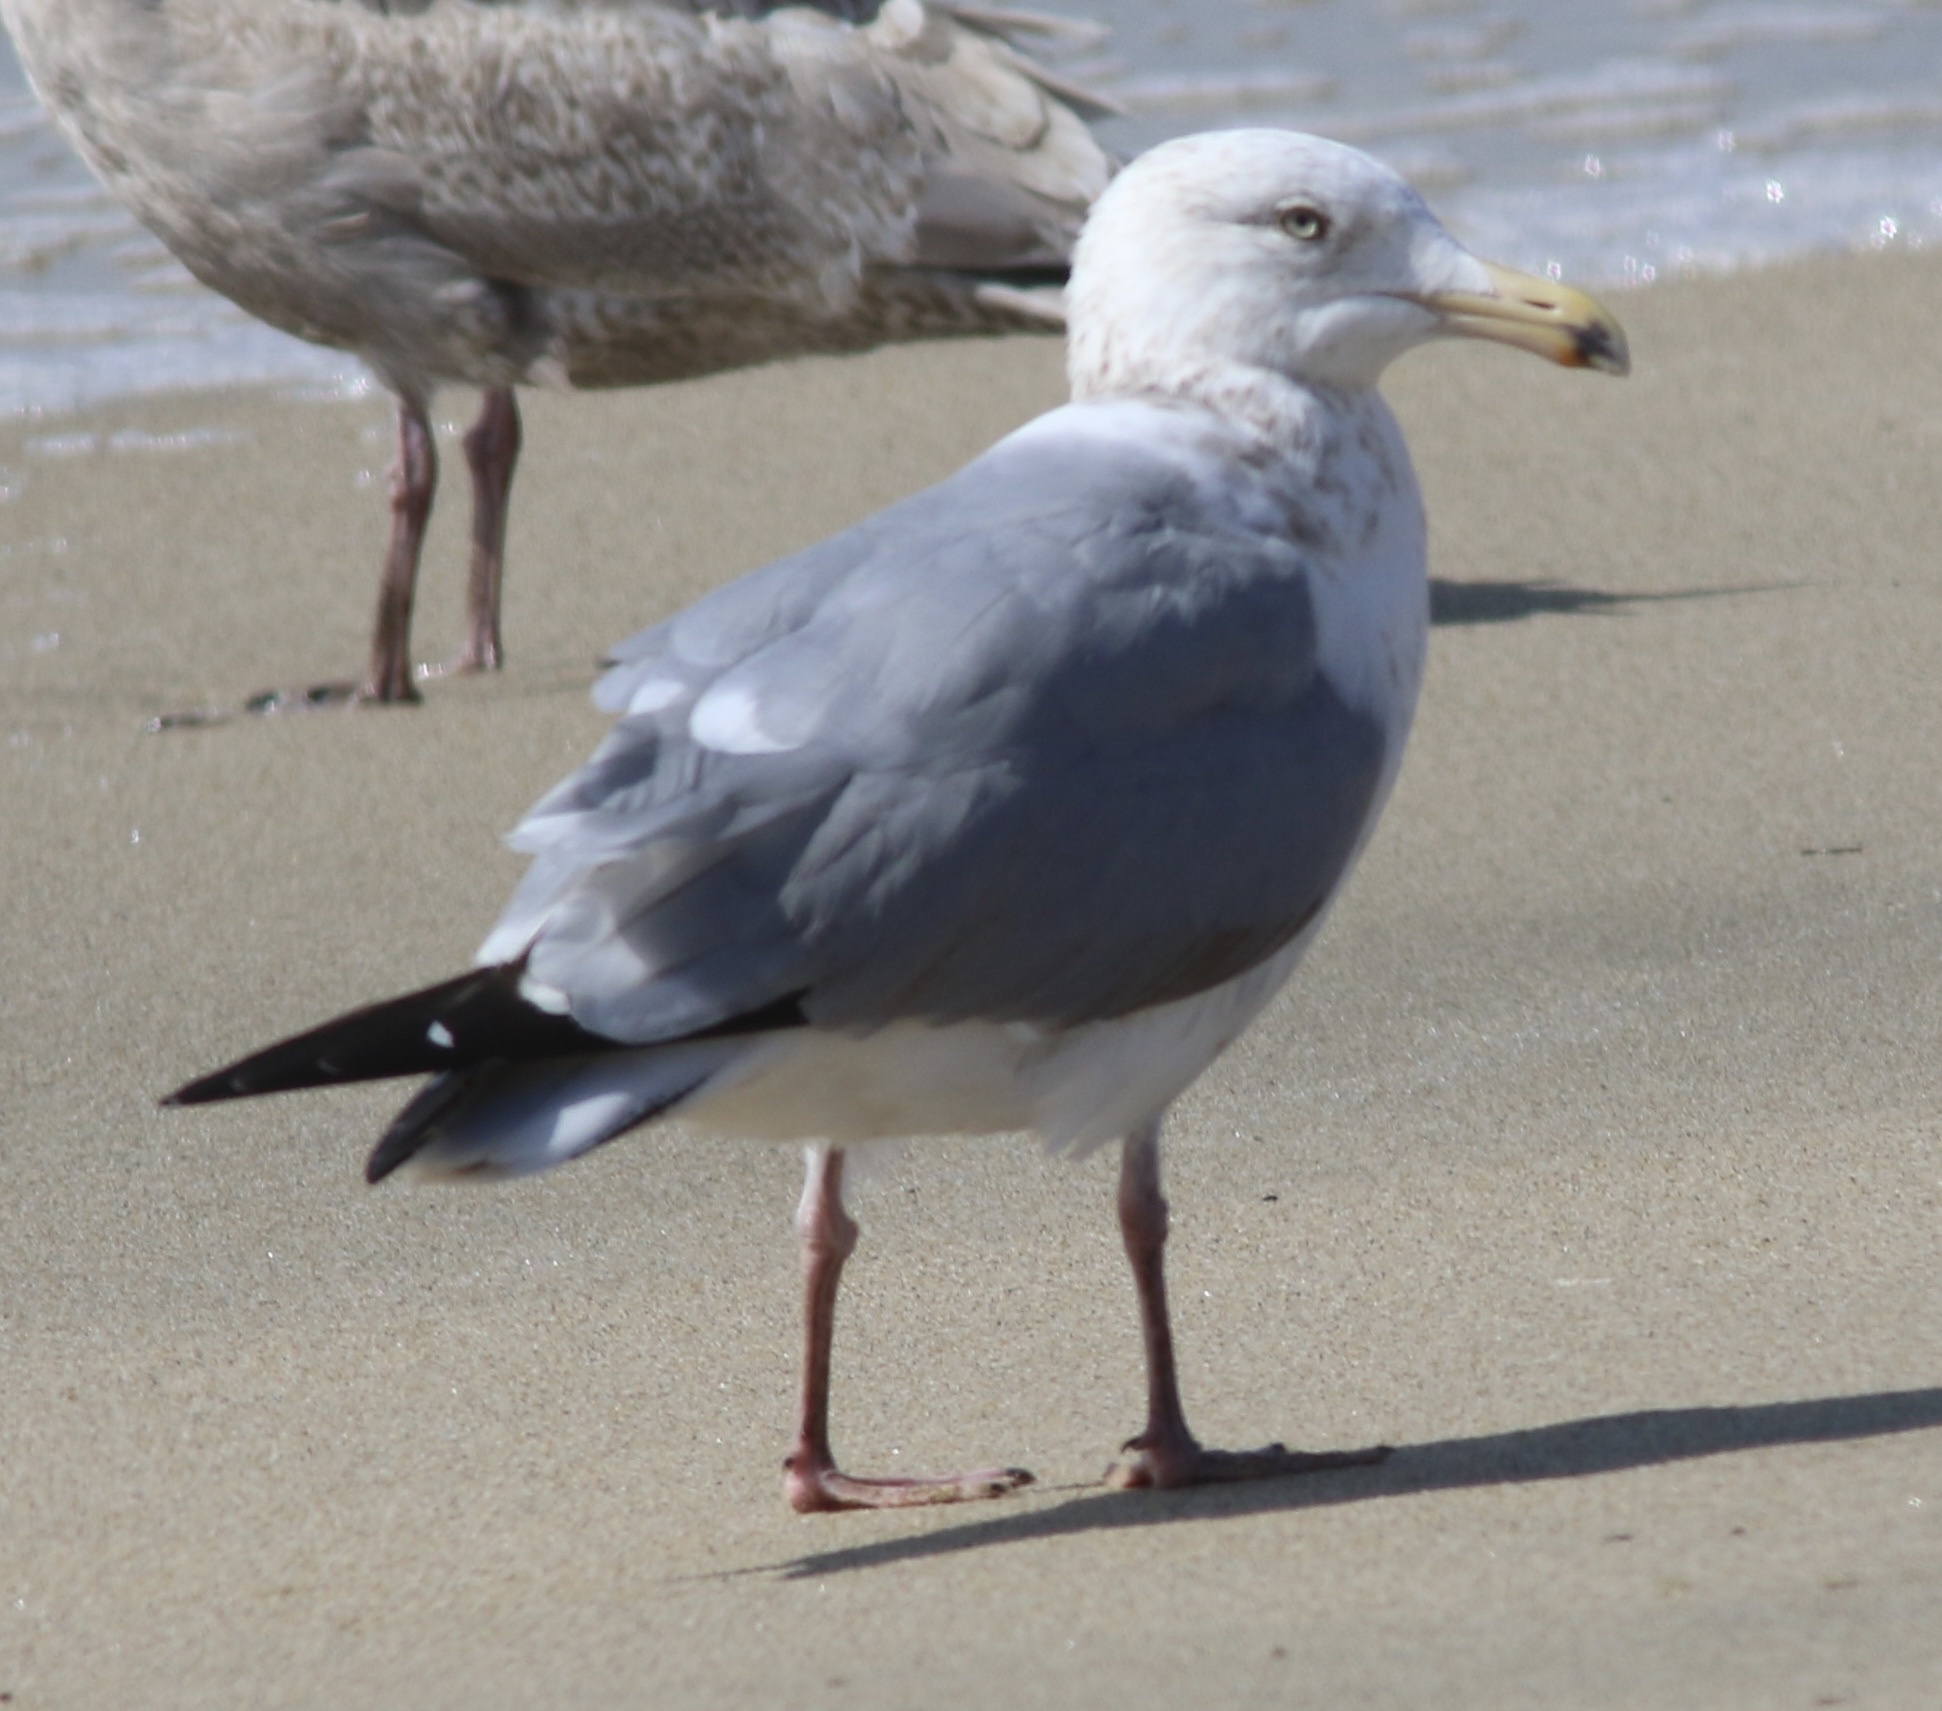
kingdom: Animalia
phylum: Chordata
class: Aves
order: Charadriiformes
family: Laridae
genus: Larus
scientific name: Larus argentatus
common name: Herring gull
